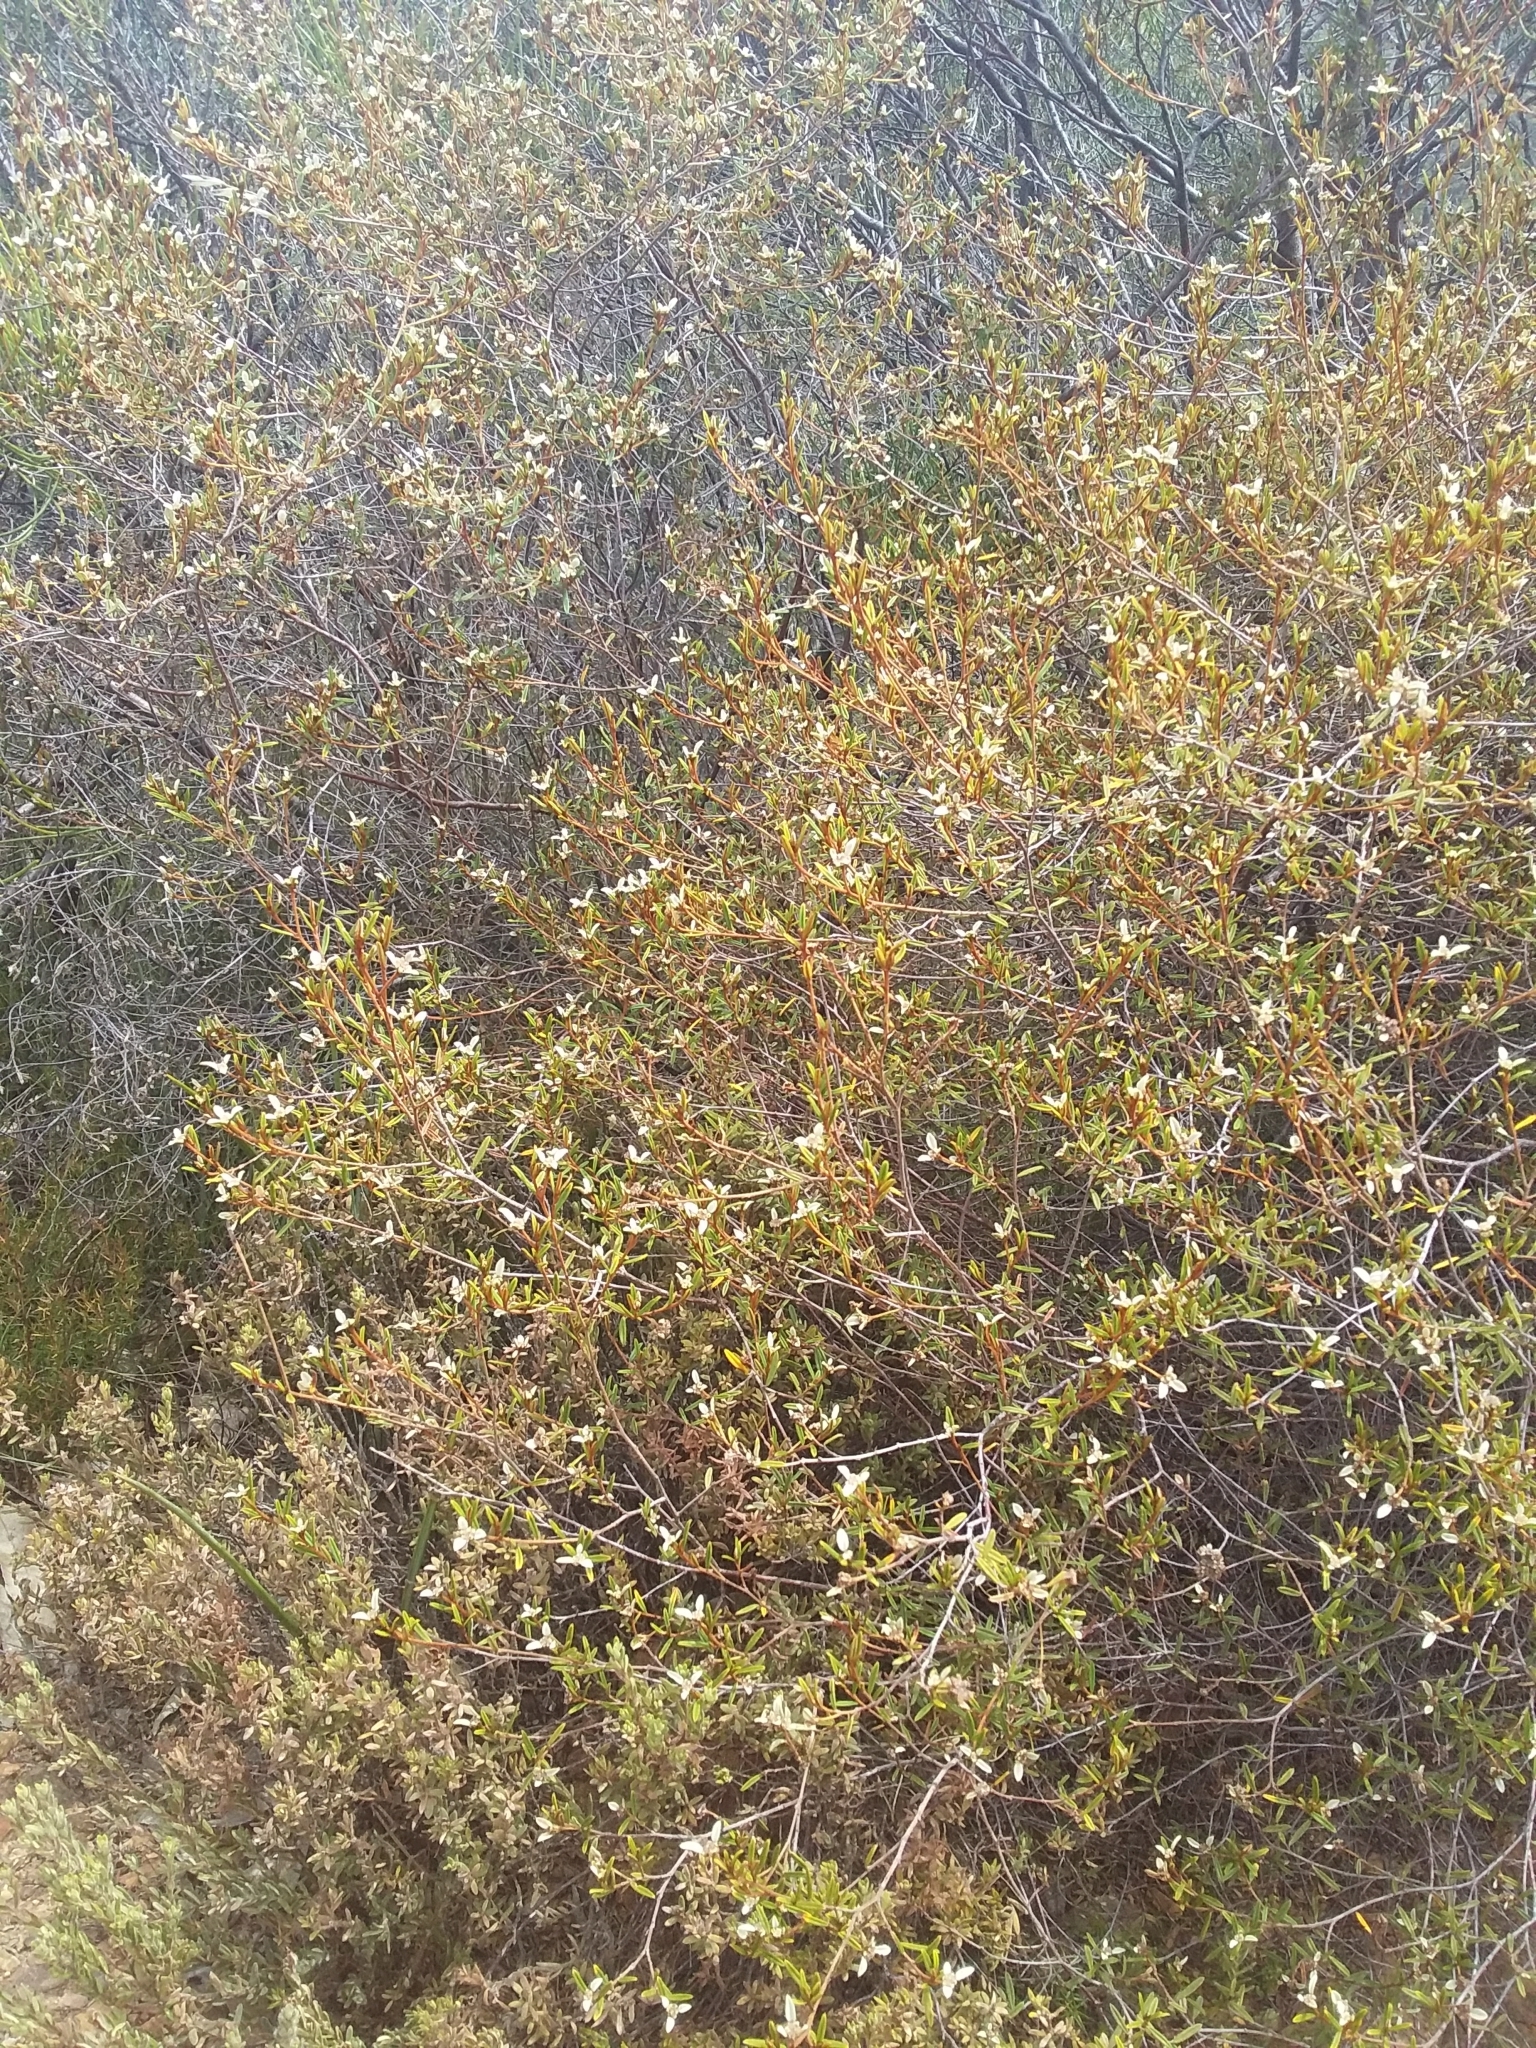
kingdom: Plantae
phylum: Tracheophyta
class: Magnoliopsida
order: Rosales
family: Rhamnaceae
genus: Spyridium
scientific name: Spyridium vexilliferum
